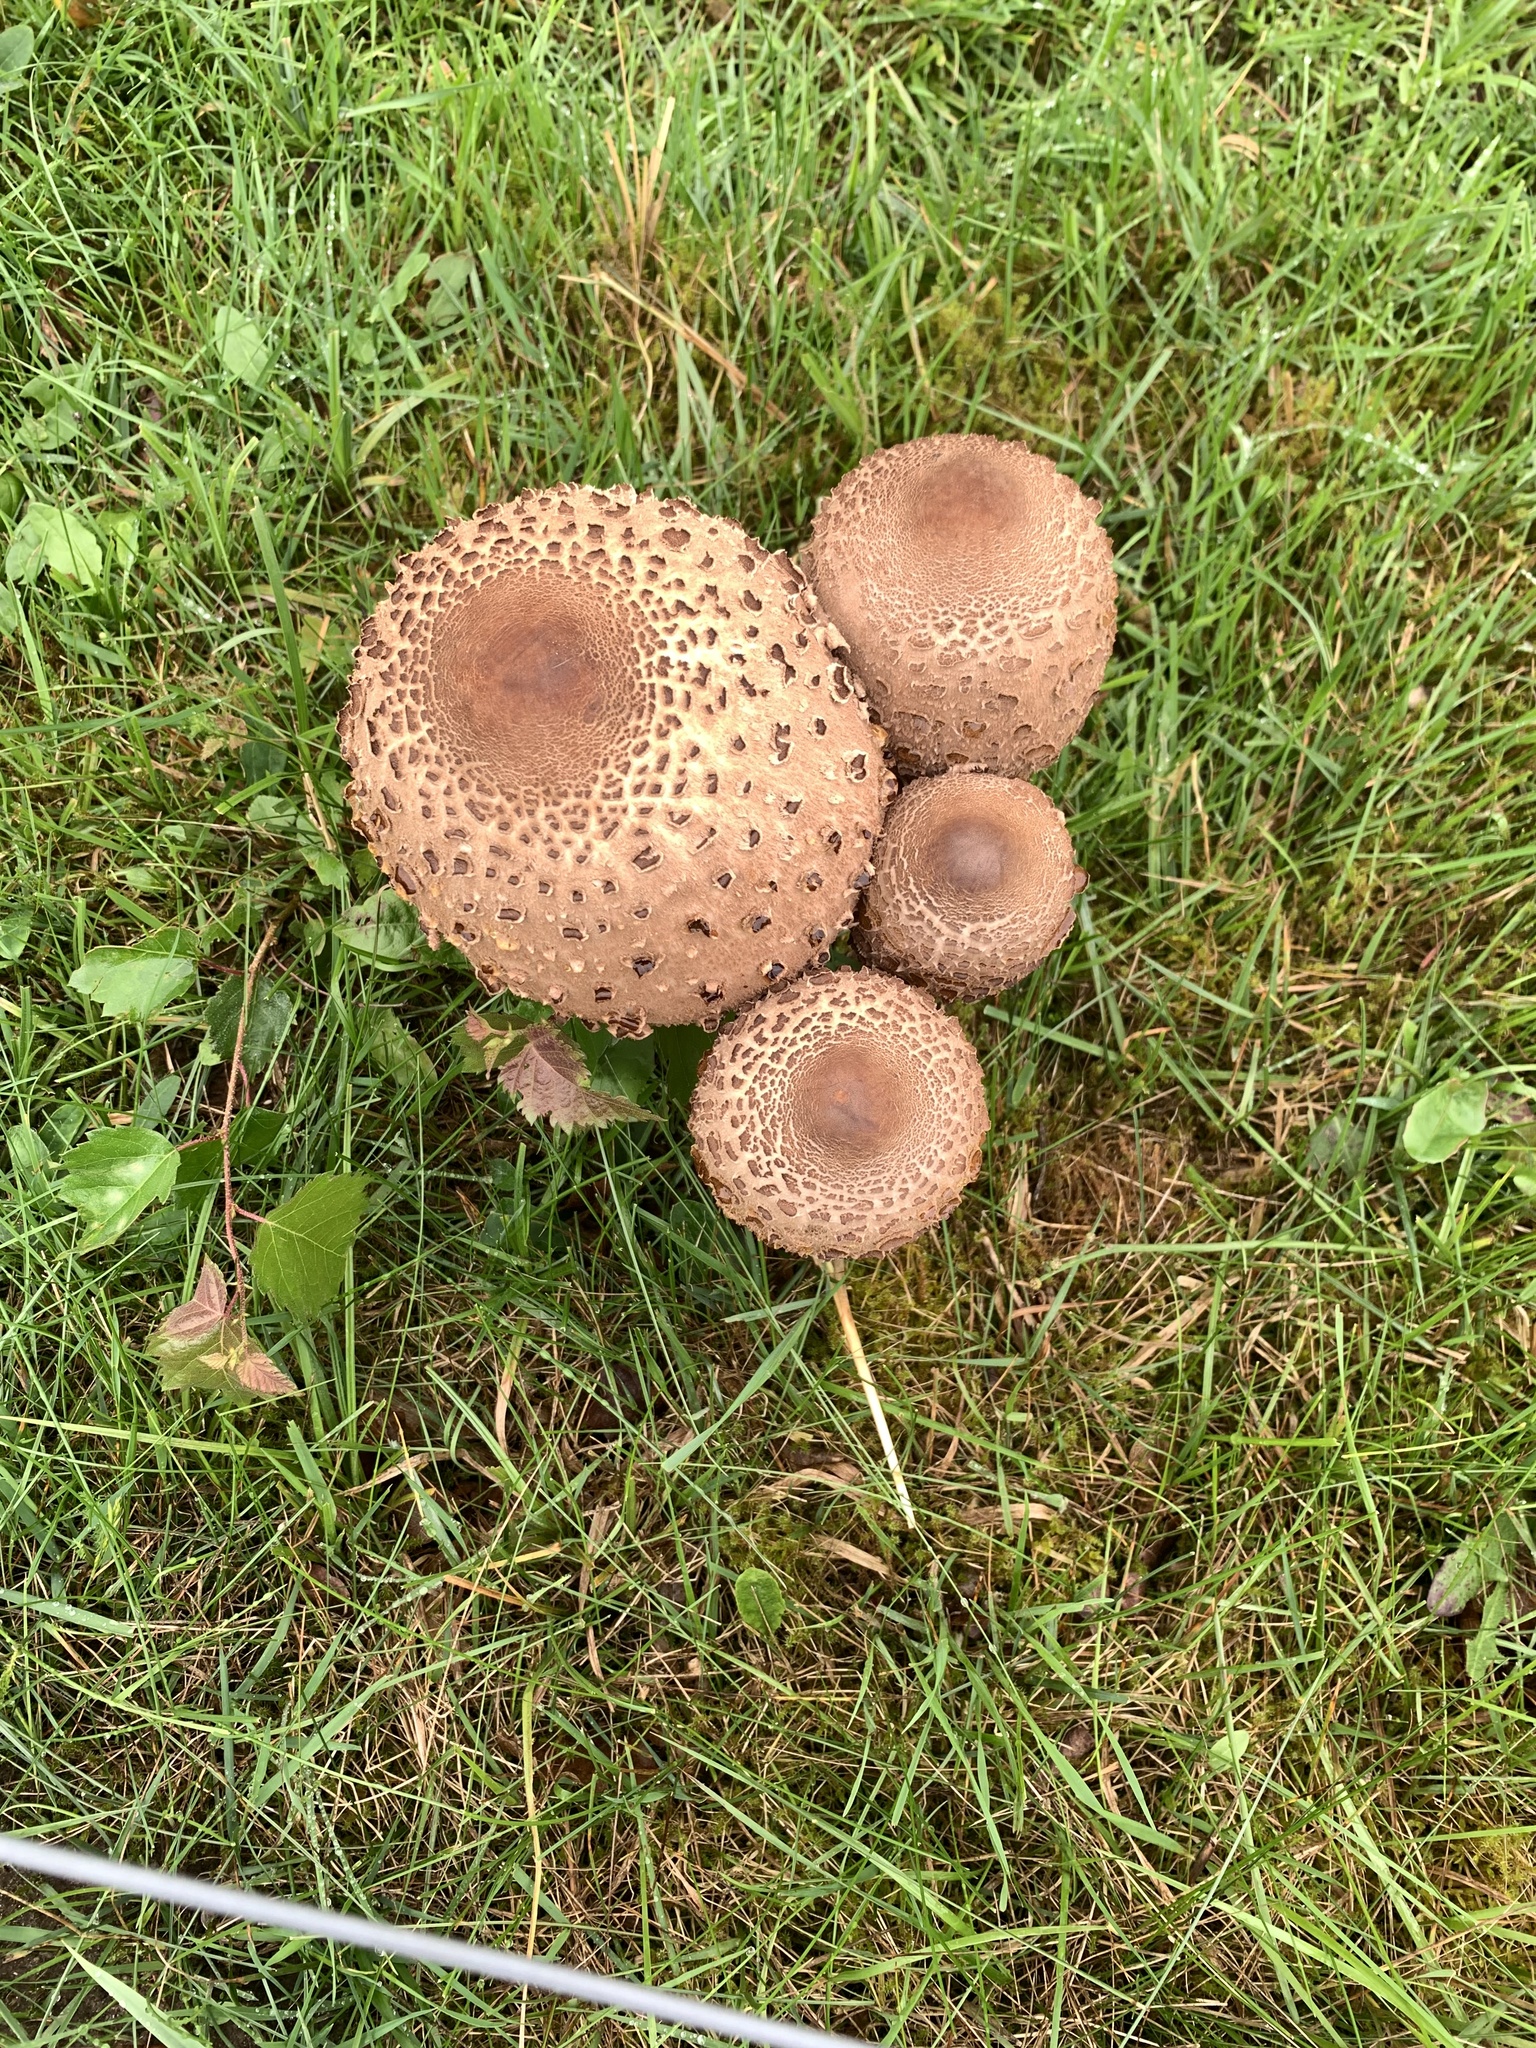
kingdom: Fungi
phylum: Basidiomycota
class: Agaricomycetes
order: Agaricales
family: Agaricaceae
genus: Macrolepiota
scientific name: Macrolepiota procera
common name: Parasol
